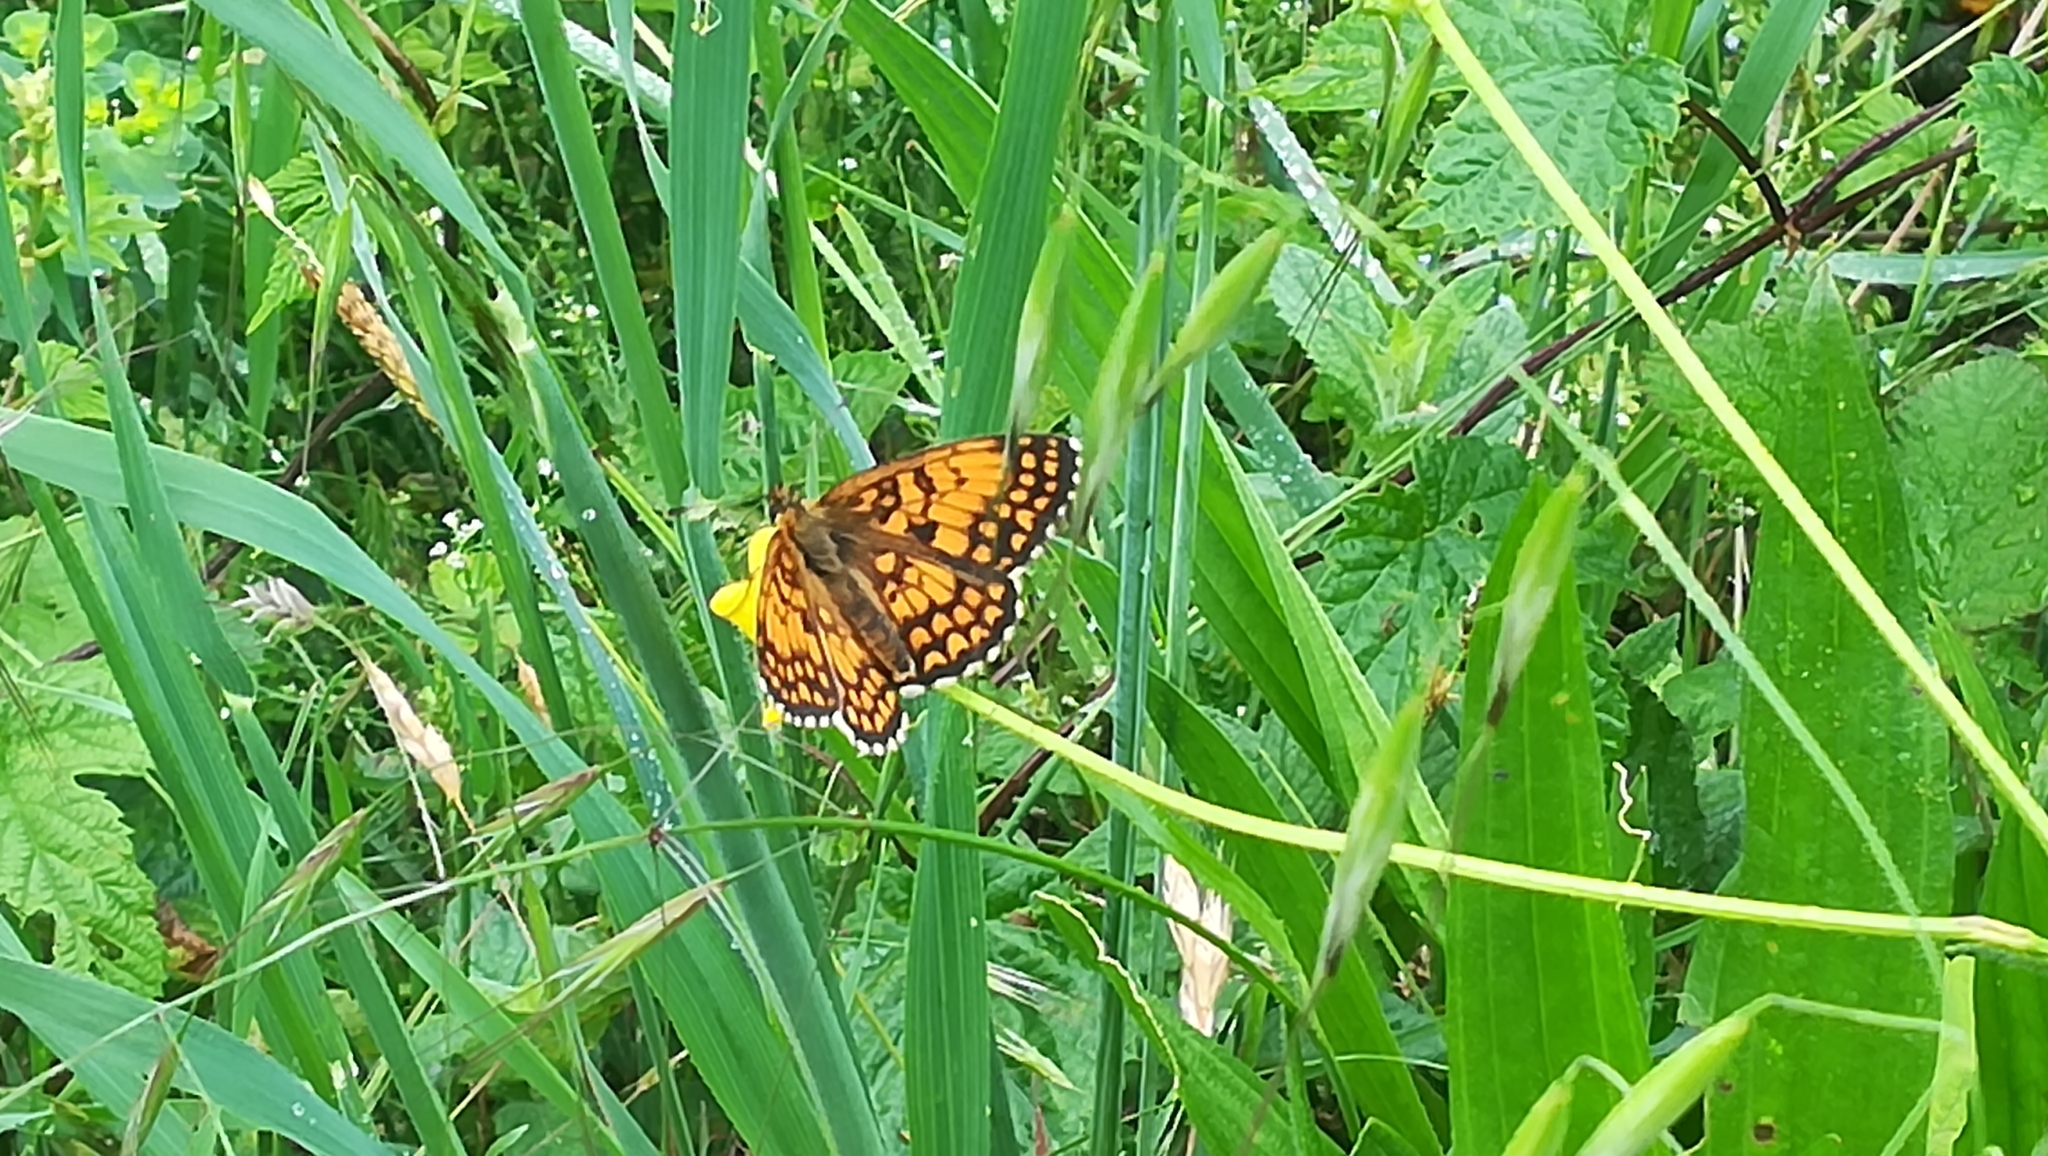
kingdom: Animalia
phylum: Arthropoda
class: Insecta
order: Lepidoptera
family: Nymphalidae
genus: Mellicta
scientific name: Mellicta athalia
